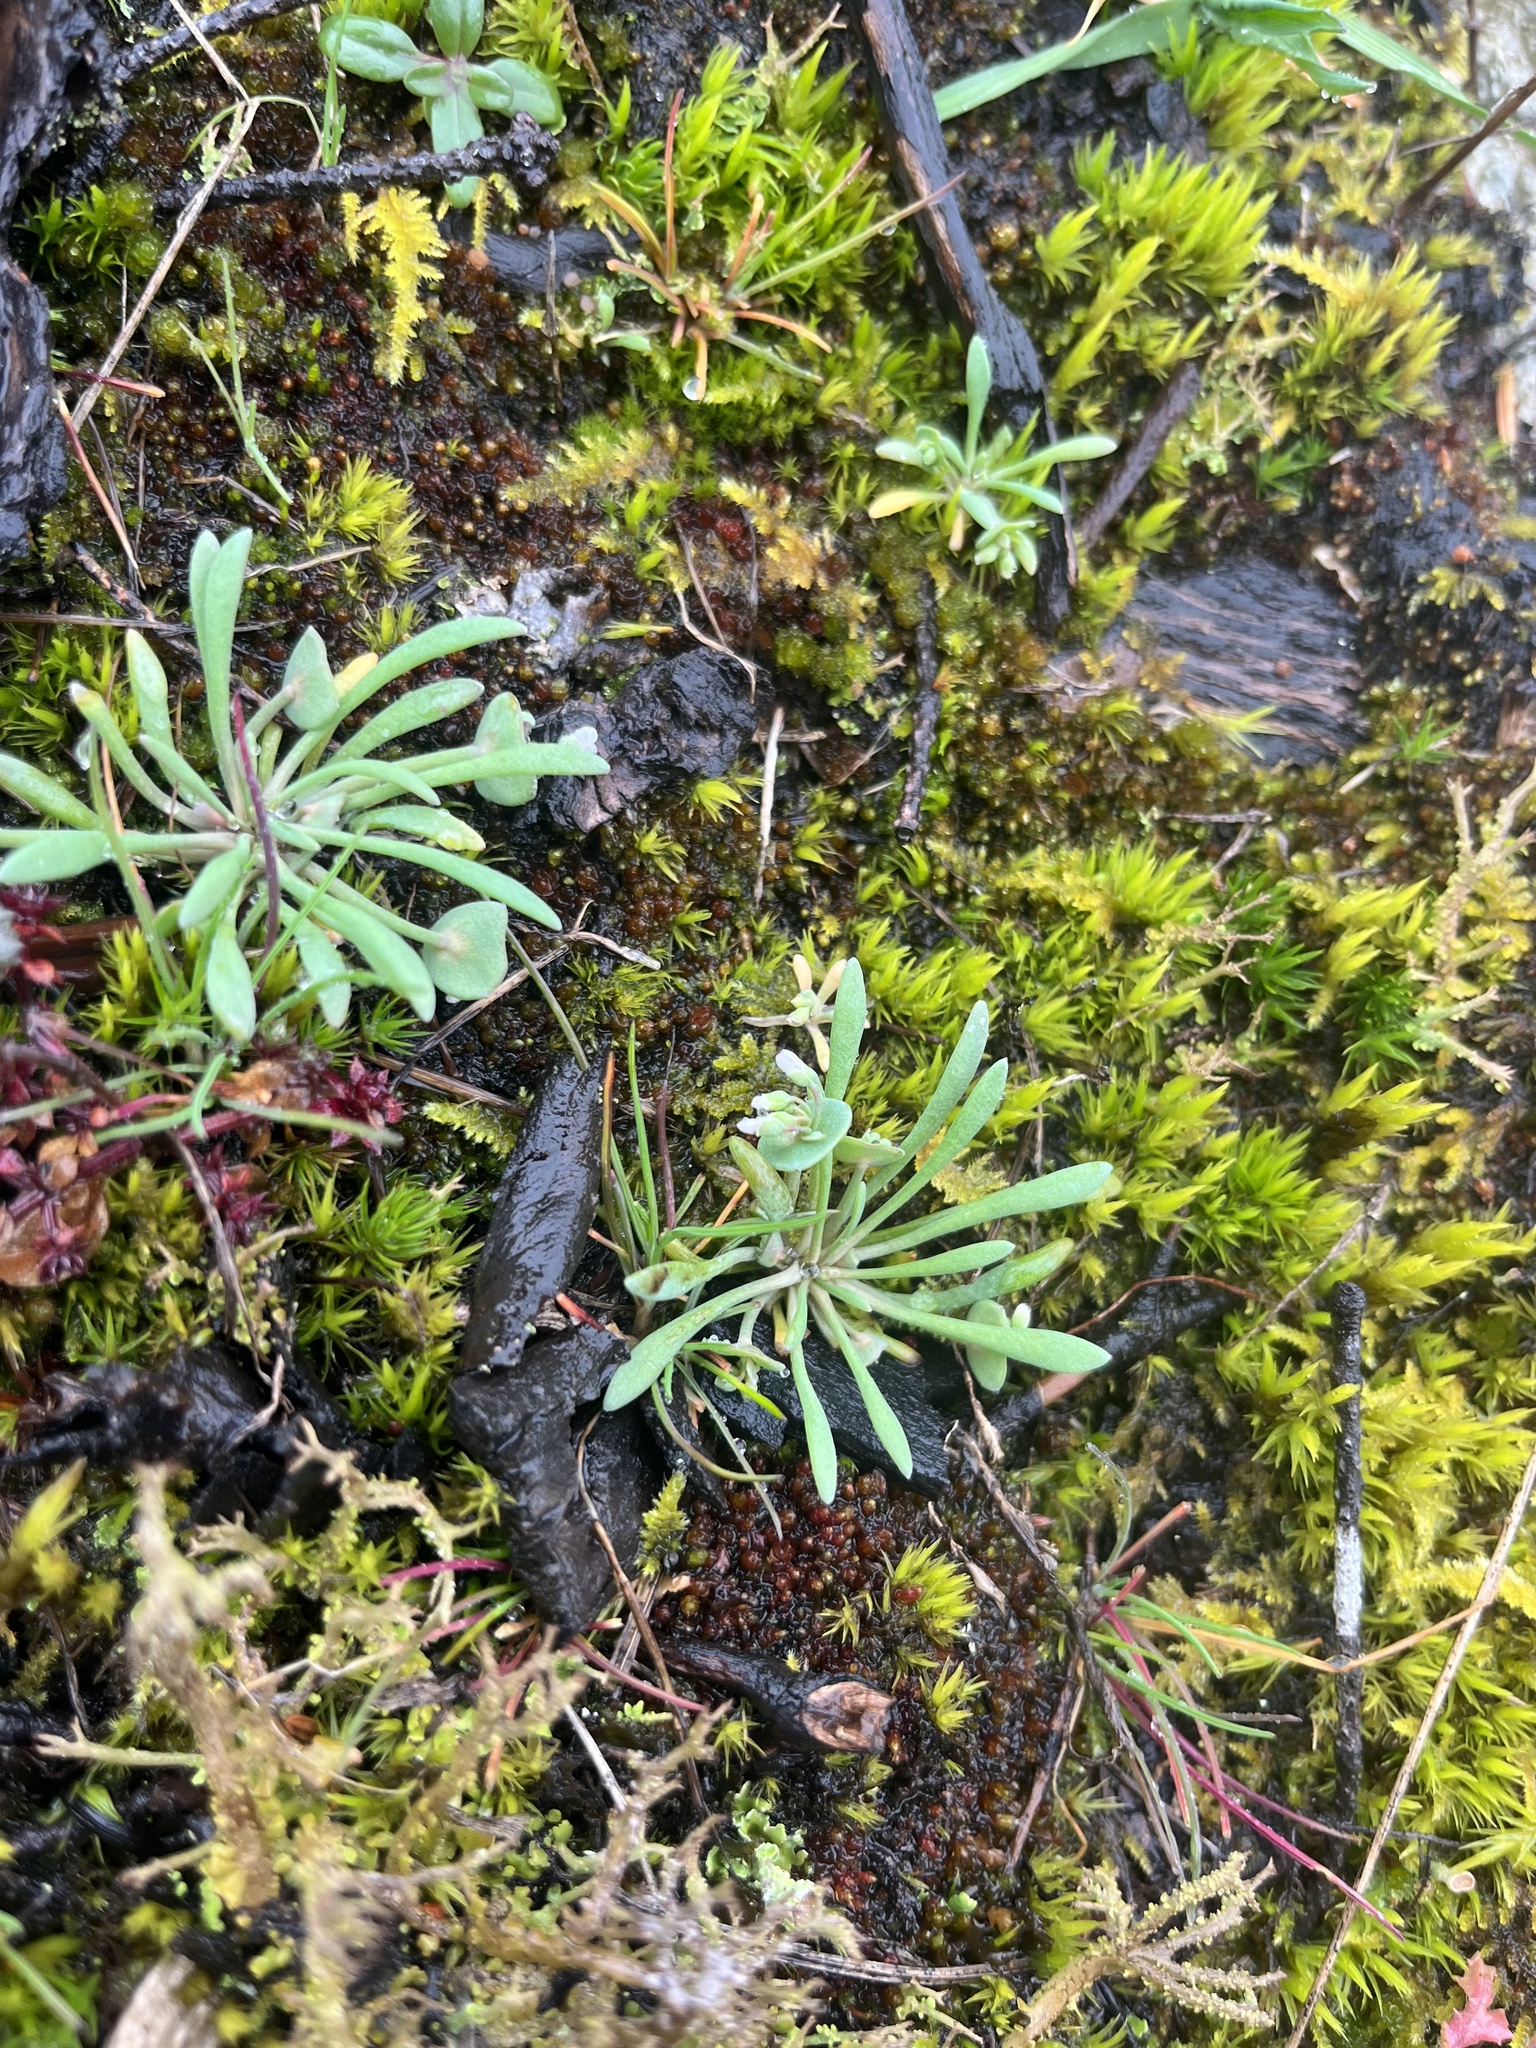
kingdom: Plantae
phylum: Tracheophyta
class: Magnoliopsida
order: Caryophyllales
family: Montiaceae
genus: Claytonia
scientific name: Claytonia exigua
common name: Pale spring beauty
